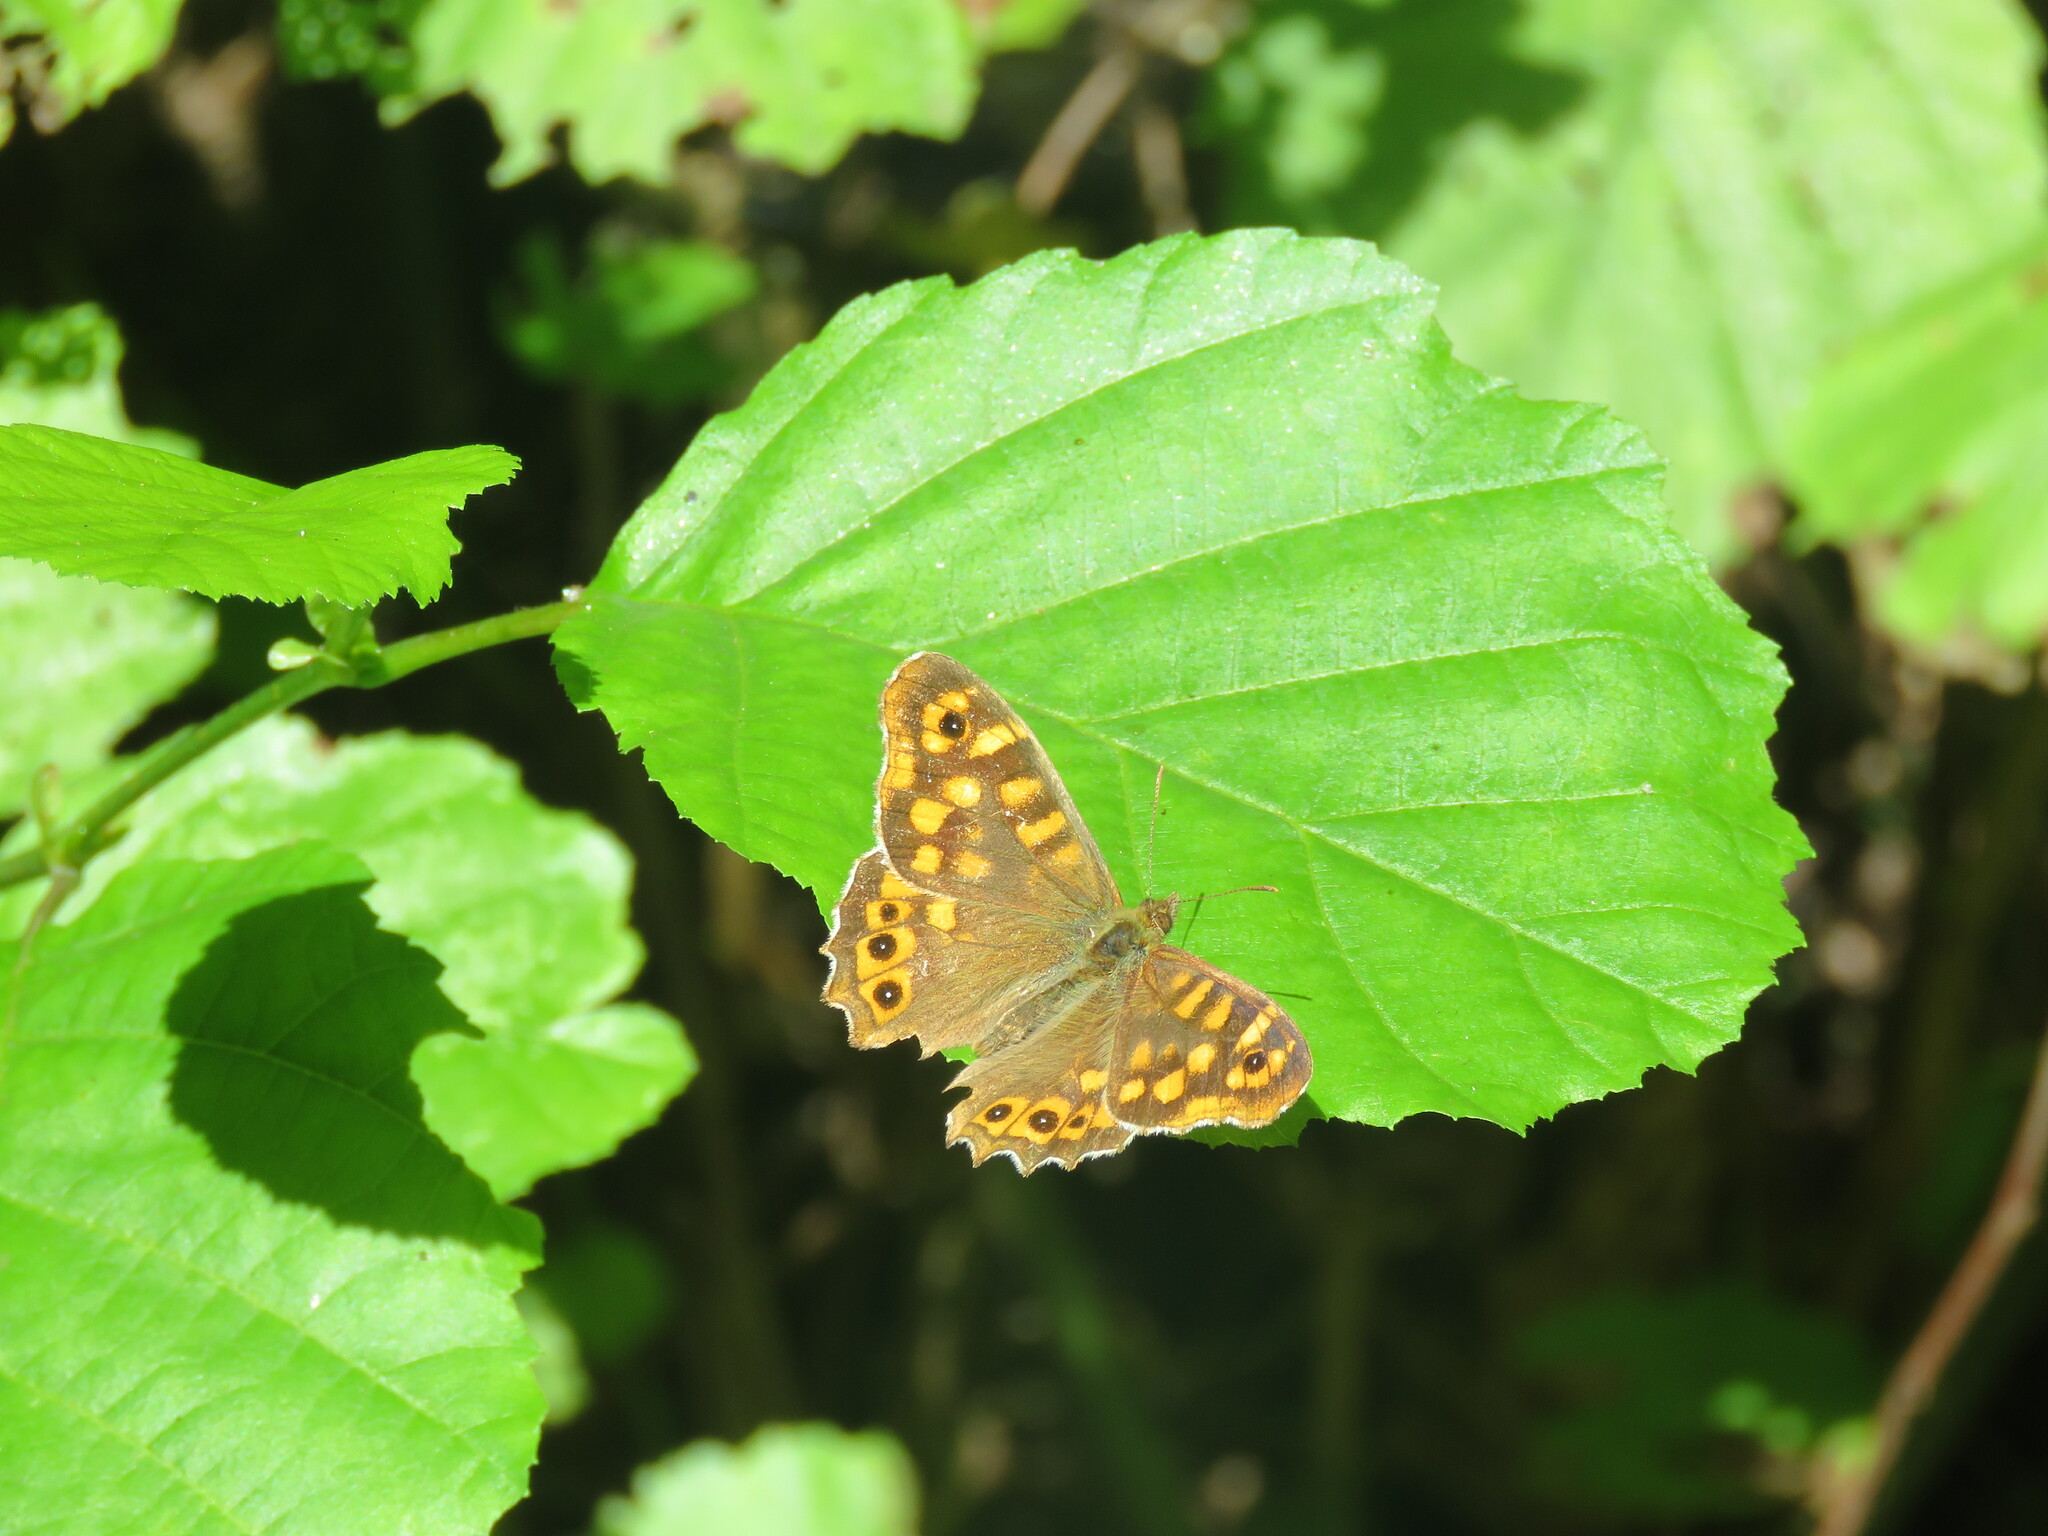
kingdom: Animalia
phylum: Arthropoda
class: Insecta
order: Lepidoptera
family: Nymphalidae
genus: Pararge
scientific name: Pararge aegeria
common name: Speckled wood
